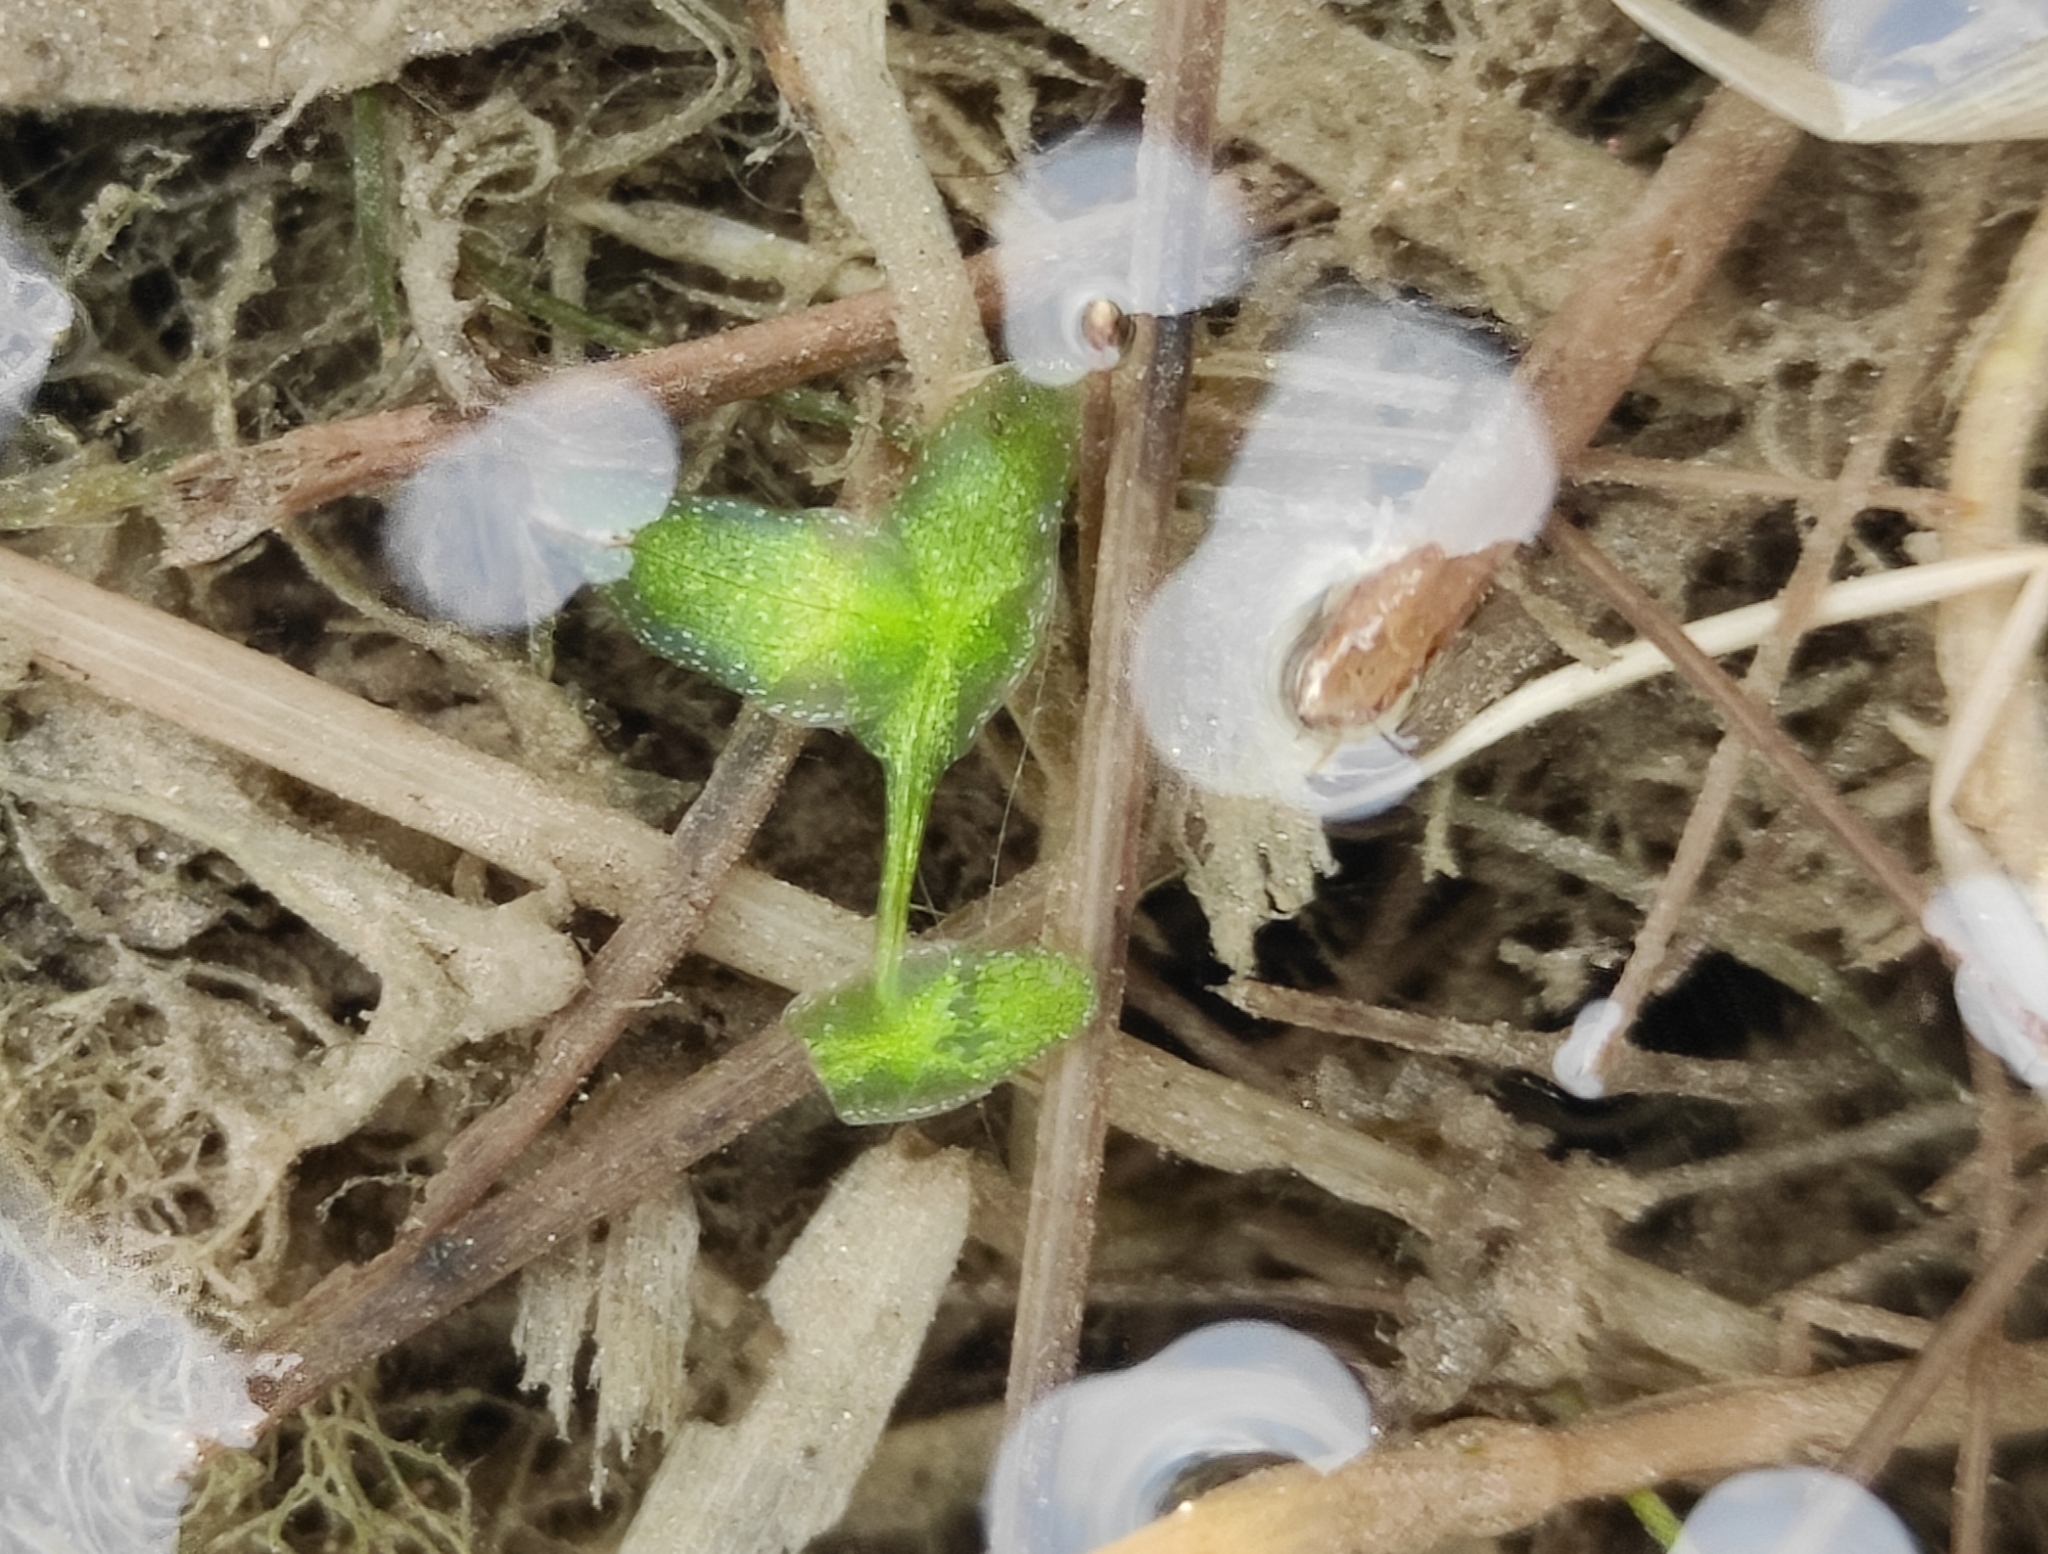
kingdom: Plantae
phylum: Tracheophyta
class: Liliopsida
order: Alismatales
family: Araceae
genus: Lemna
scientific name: Lemna trisulca
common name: Ivy-leaved duckweed
